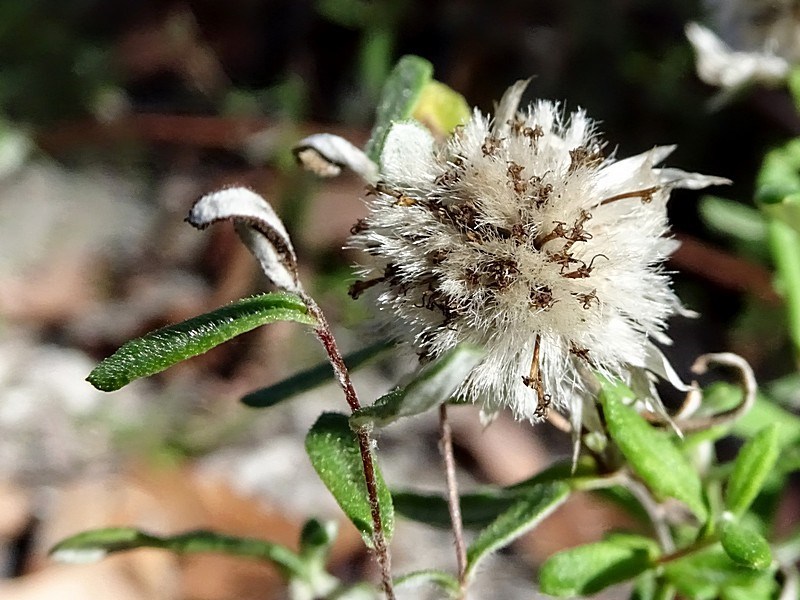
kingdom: Plantae
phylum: Tracheophyta
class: Magnoliopsida
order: Asterales
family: Asteraceae
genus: Helichrysum
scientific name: Helichrysum leucopsideum
